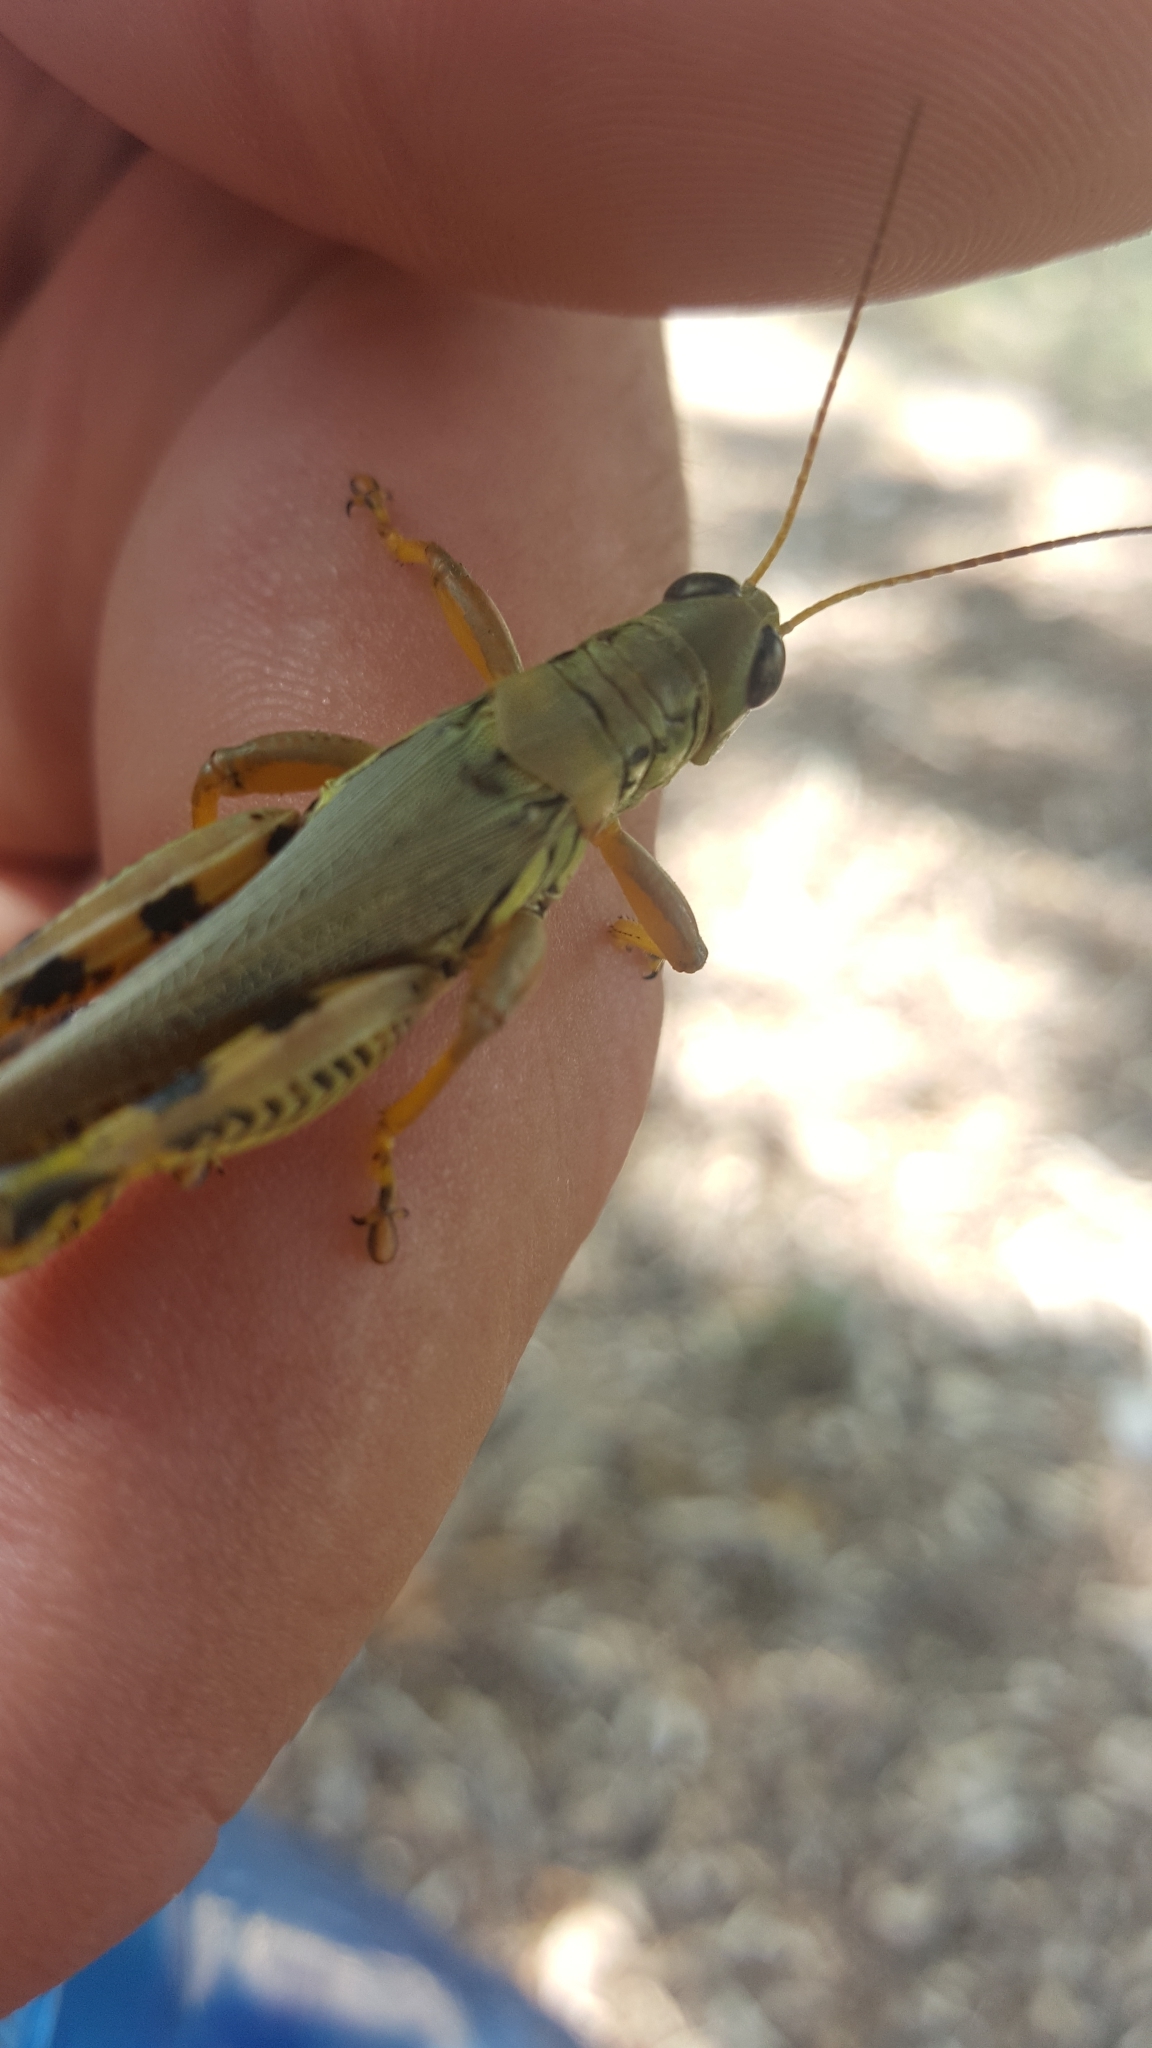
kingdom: Animalia
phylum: Arthropoda
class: Insecta
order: Orthoptera
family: Acrididae
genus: Melanoplus
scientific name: Melanoplus differentialis
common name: Differential grasshopper
